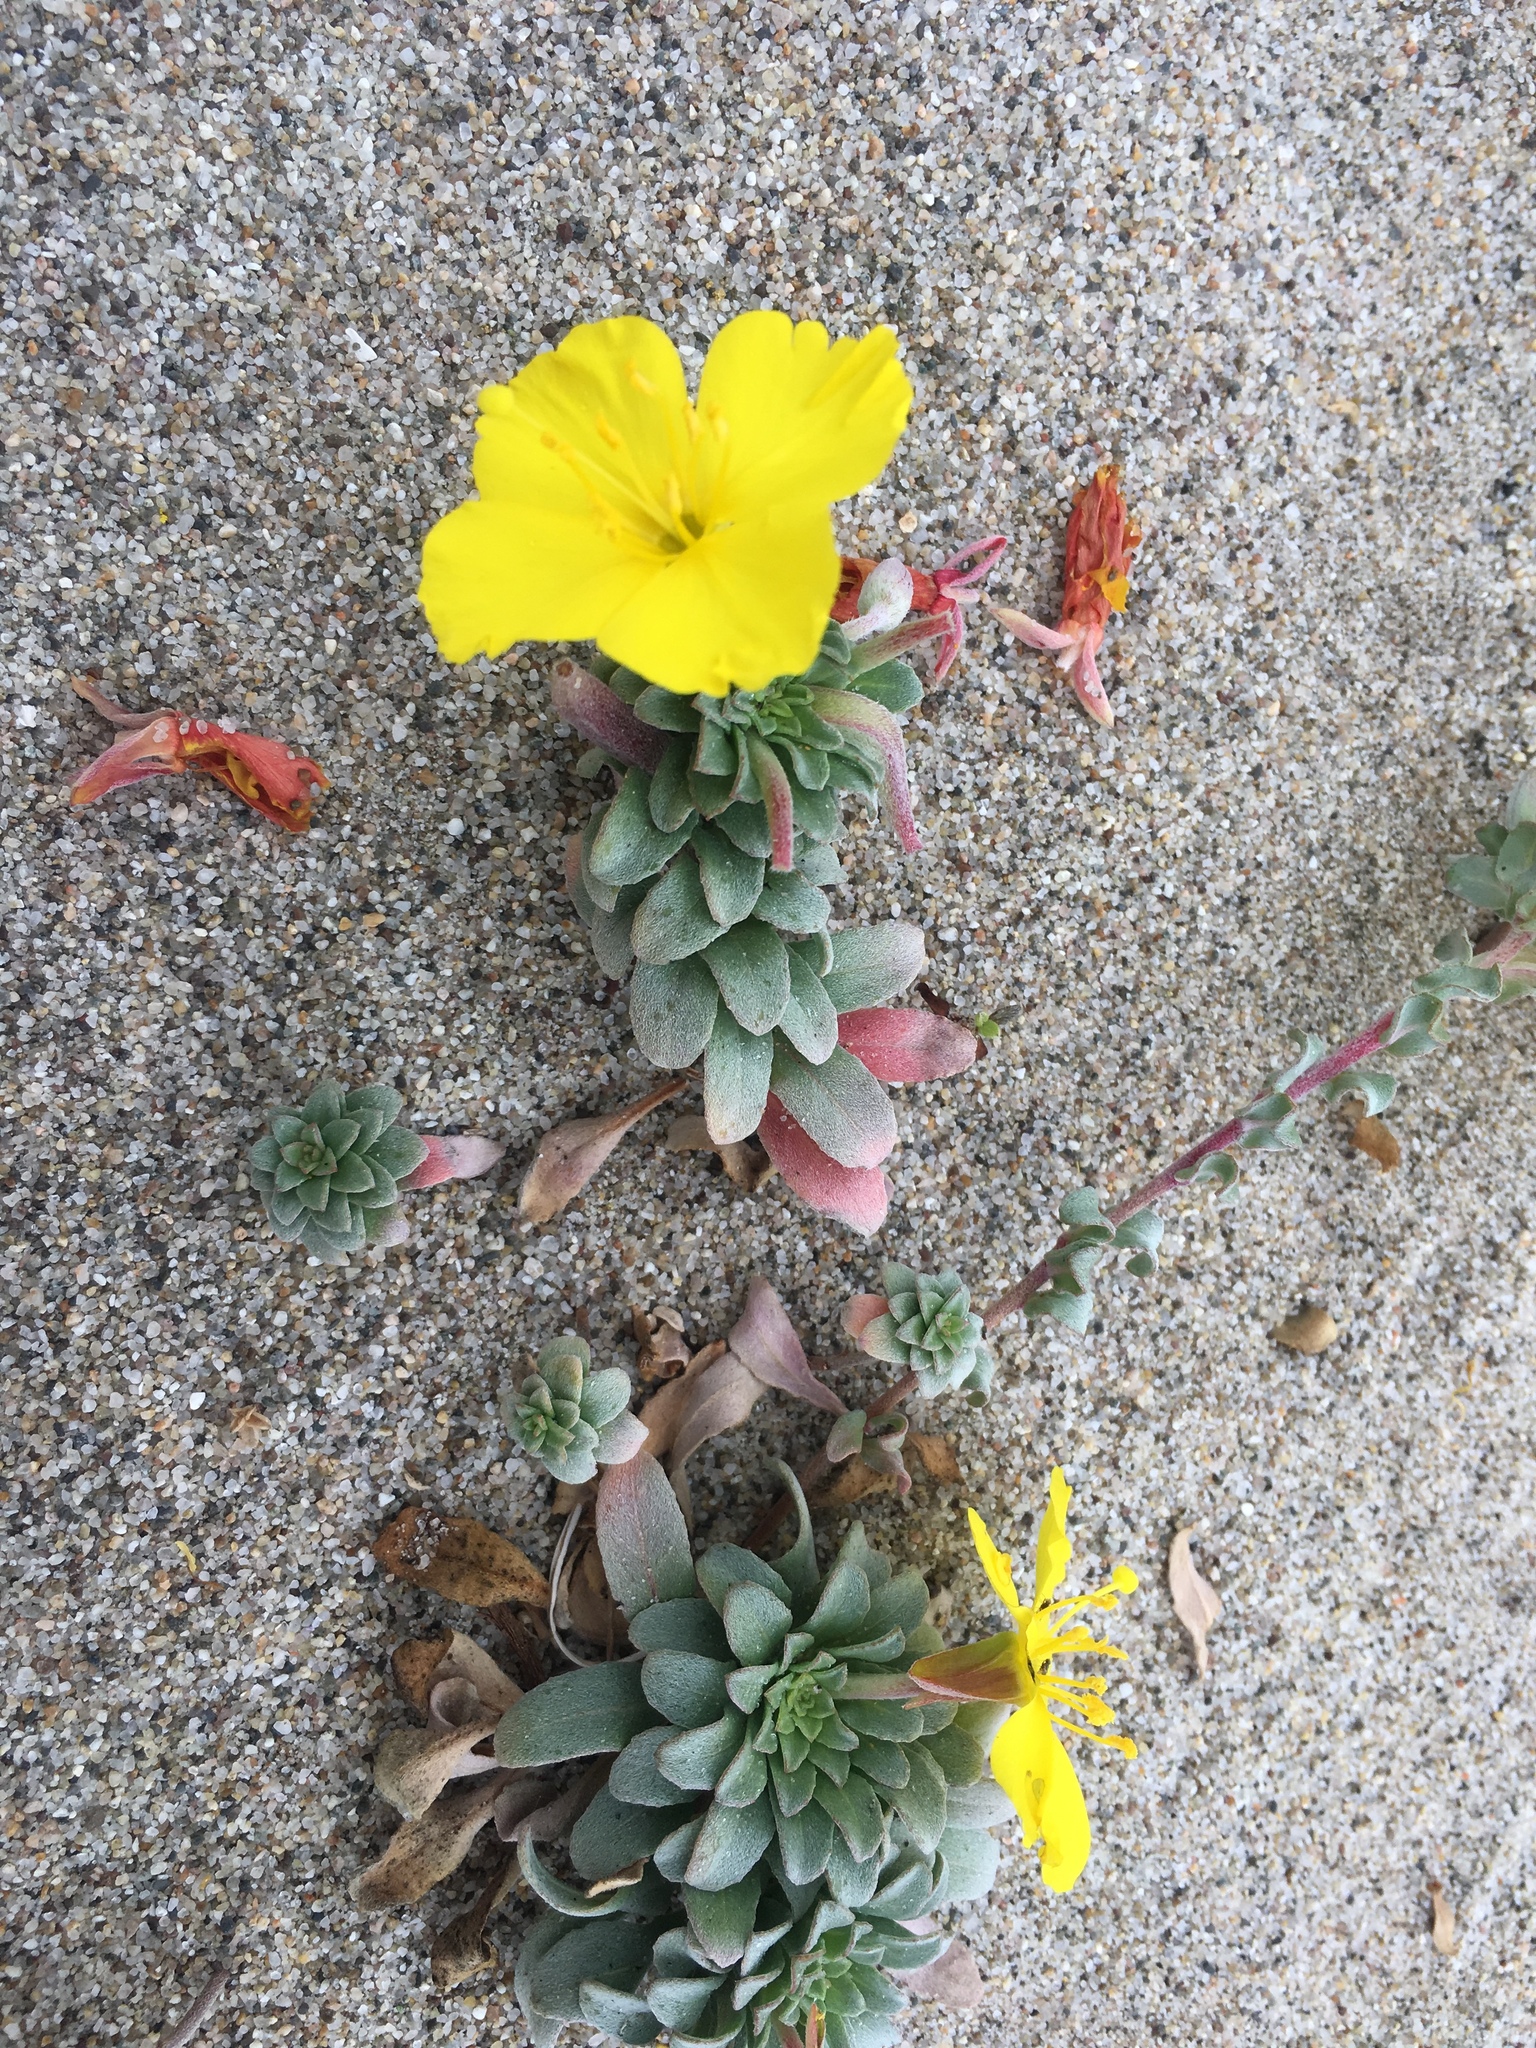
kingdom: Plantae
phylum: Tracheophyta
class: Magnoliopsida
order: Myrtales
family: Onagraceae
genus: Camissoniopsis
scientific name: Camissoniopsis cheiranthifolia
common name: Beach suncup
